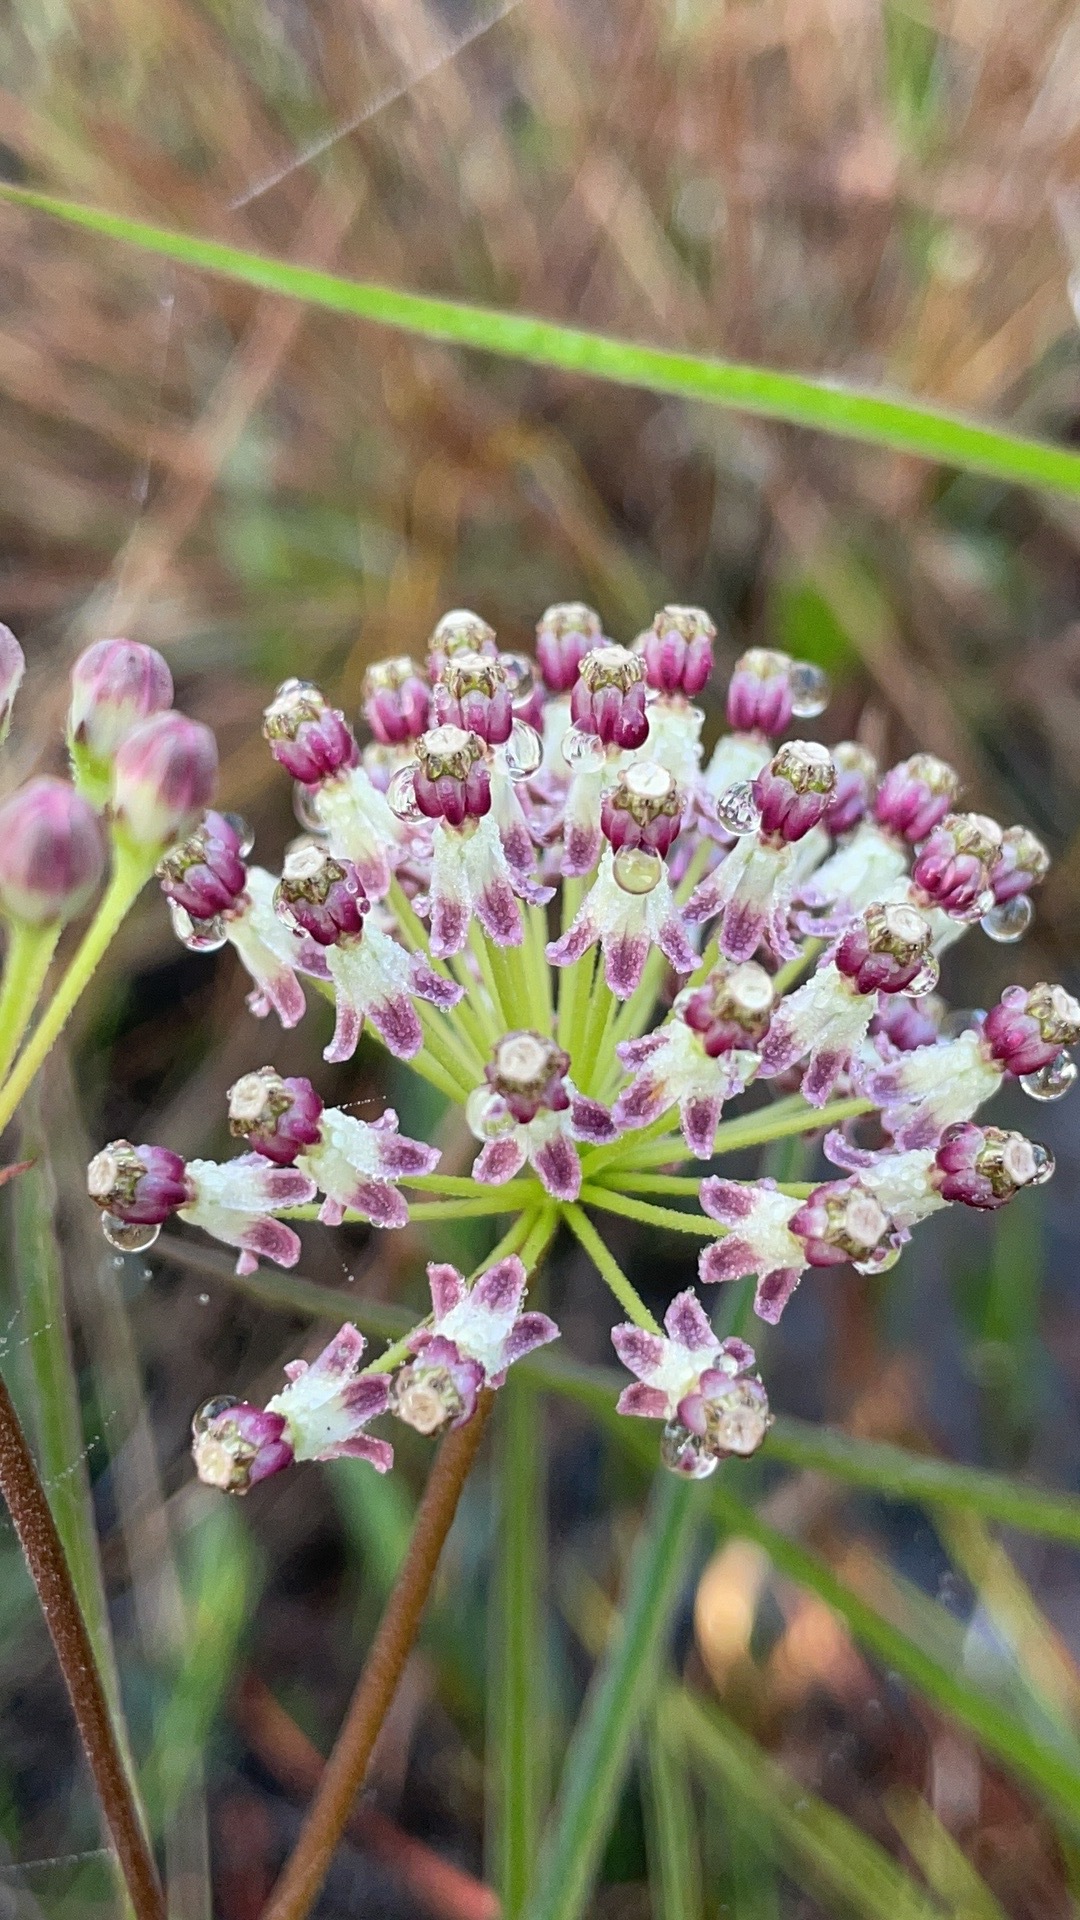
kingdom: Plantae
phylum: Tracheophyta
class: Magnoliopsida
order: Gentianales
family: Apocynaceae
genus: Asclepias
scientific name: Asclepias longifolia
